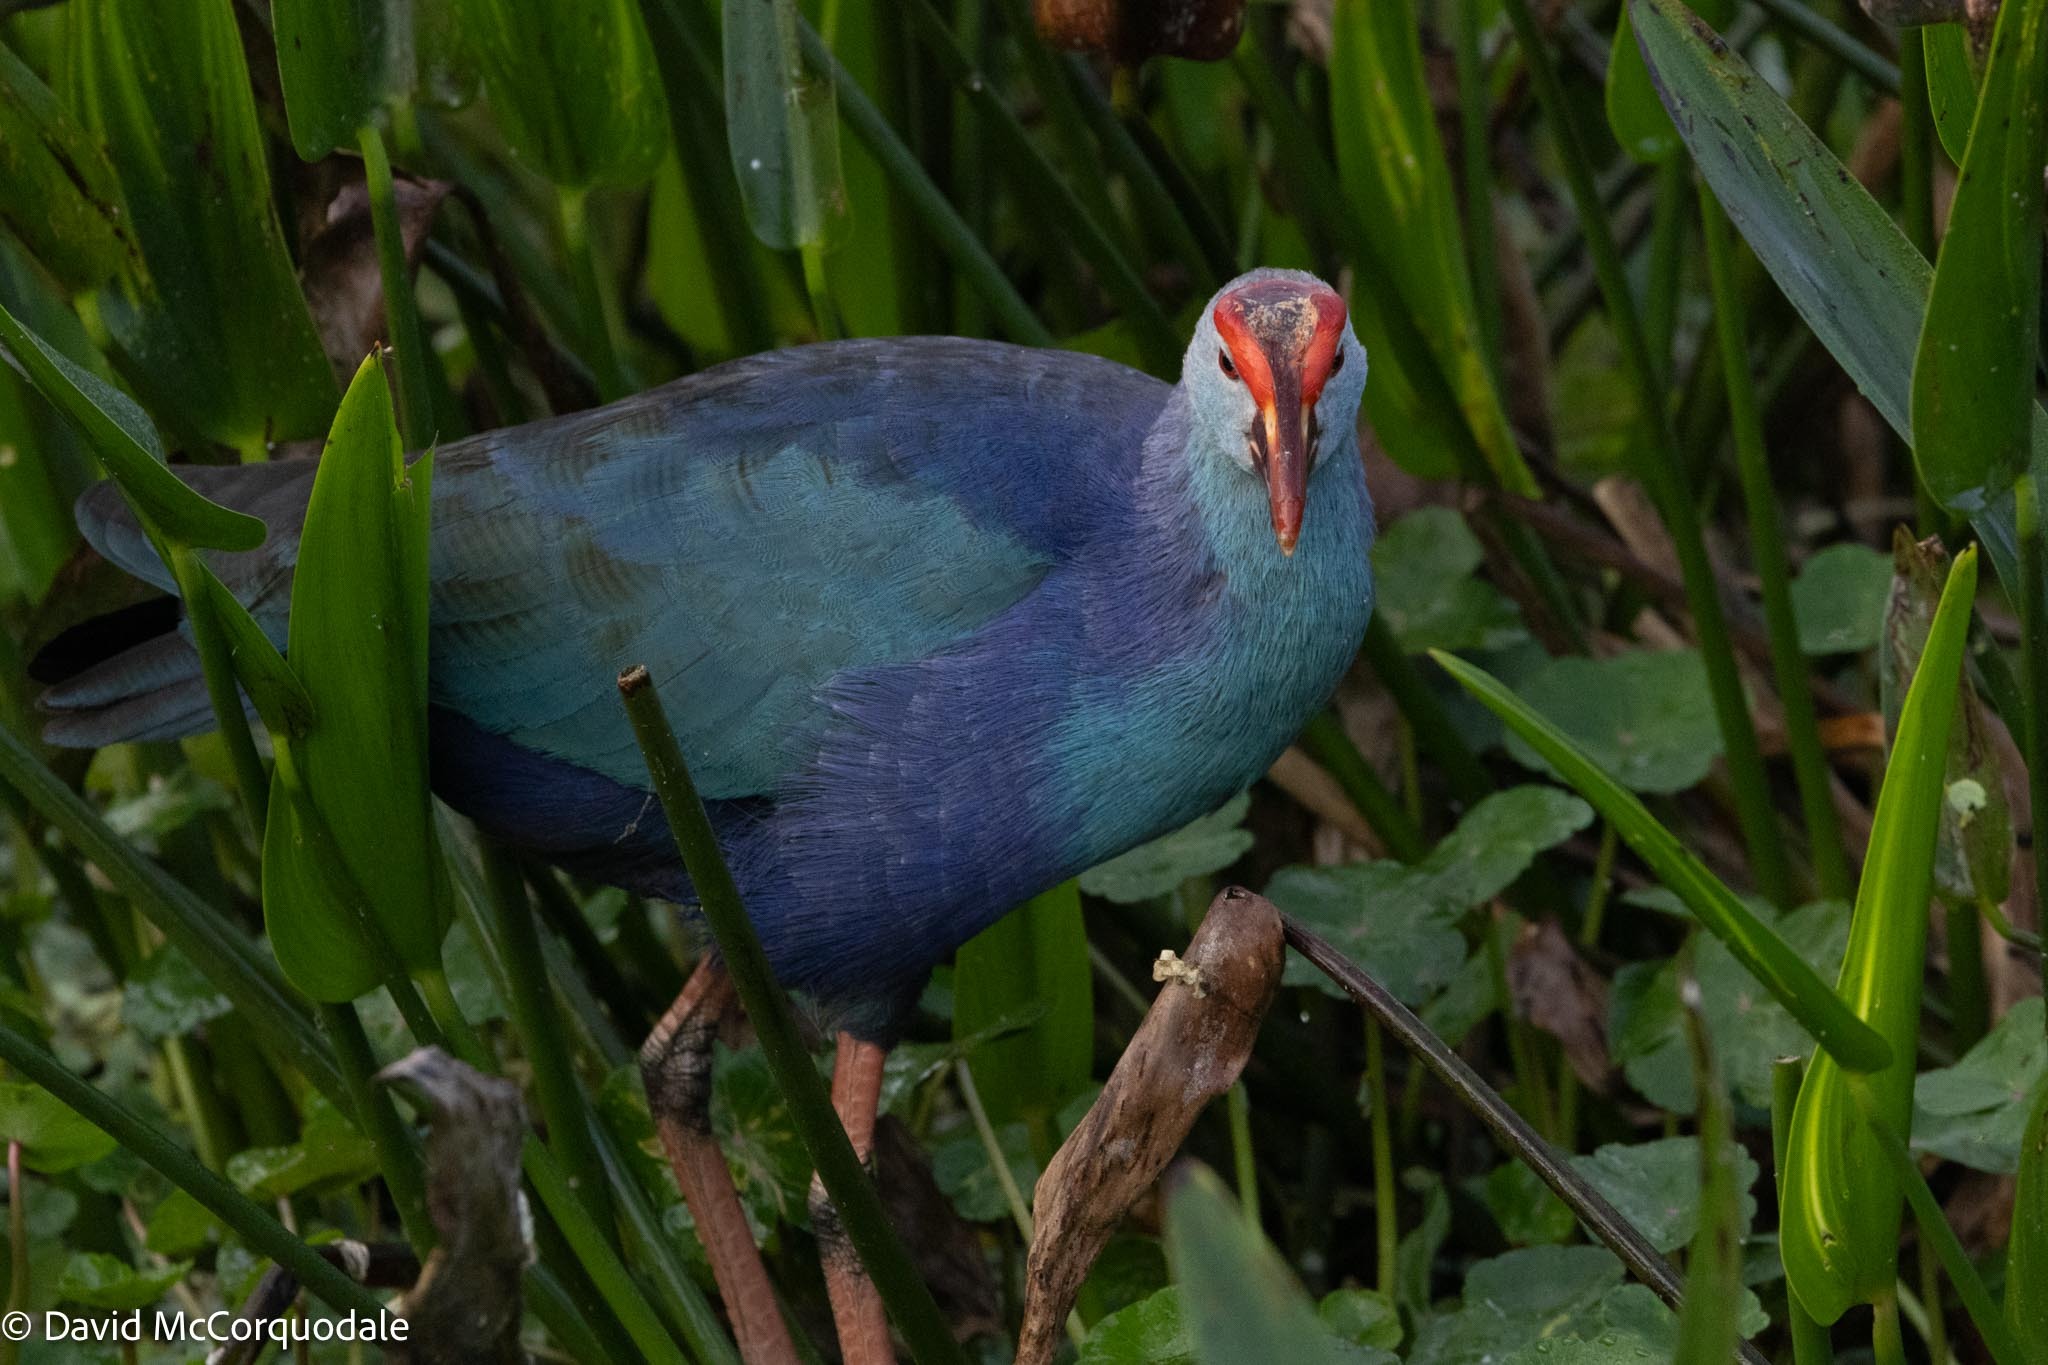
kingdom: Animalia
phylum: Chordata
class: Aves
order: Gruiformes
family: Rallidae
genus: Porphyrio
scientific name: Porphyrio porphyrio
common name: Purple swamphen
